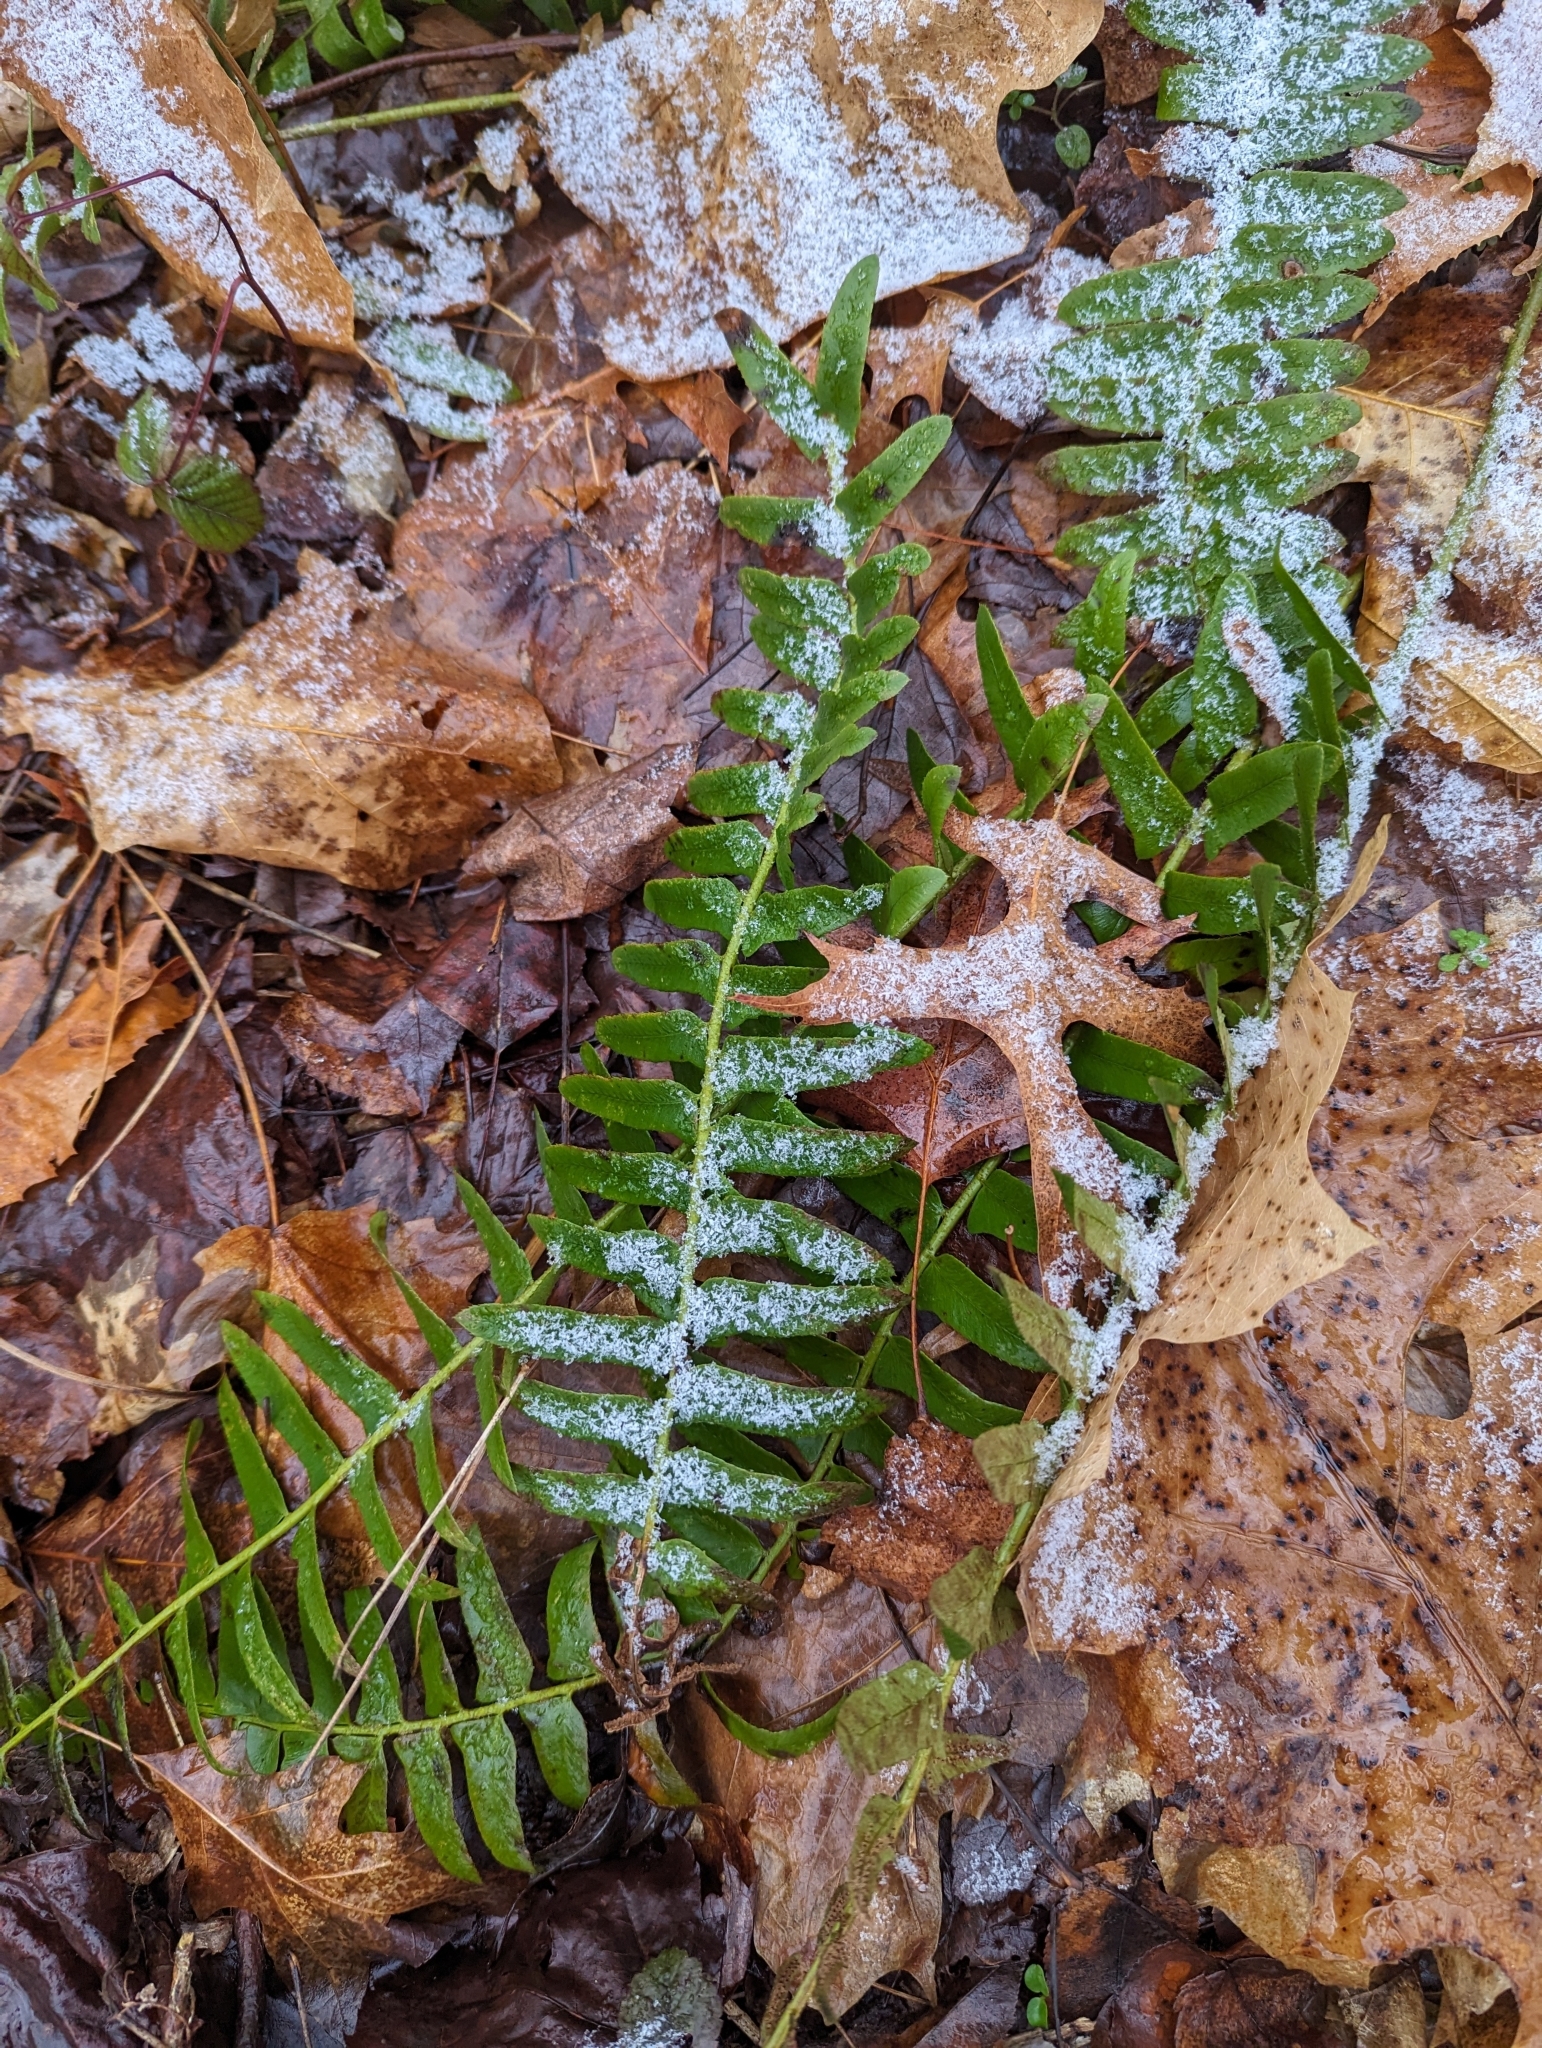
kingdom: Plantae
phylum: Tracheophyta
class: Polypodiopsida
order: Polypodiales
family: Dryopteridaceae
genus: Polystichum
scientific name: Polystichum acrostichoides
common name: Christmas fern
